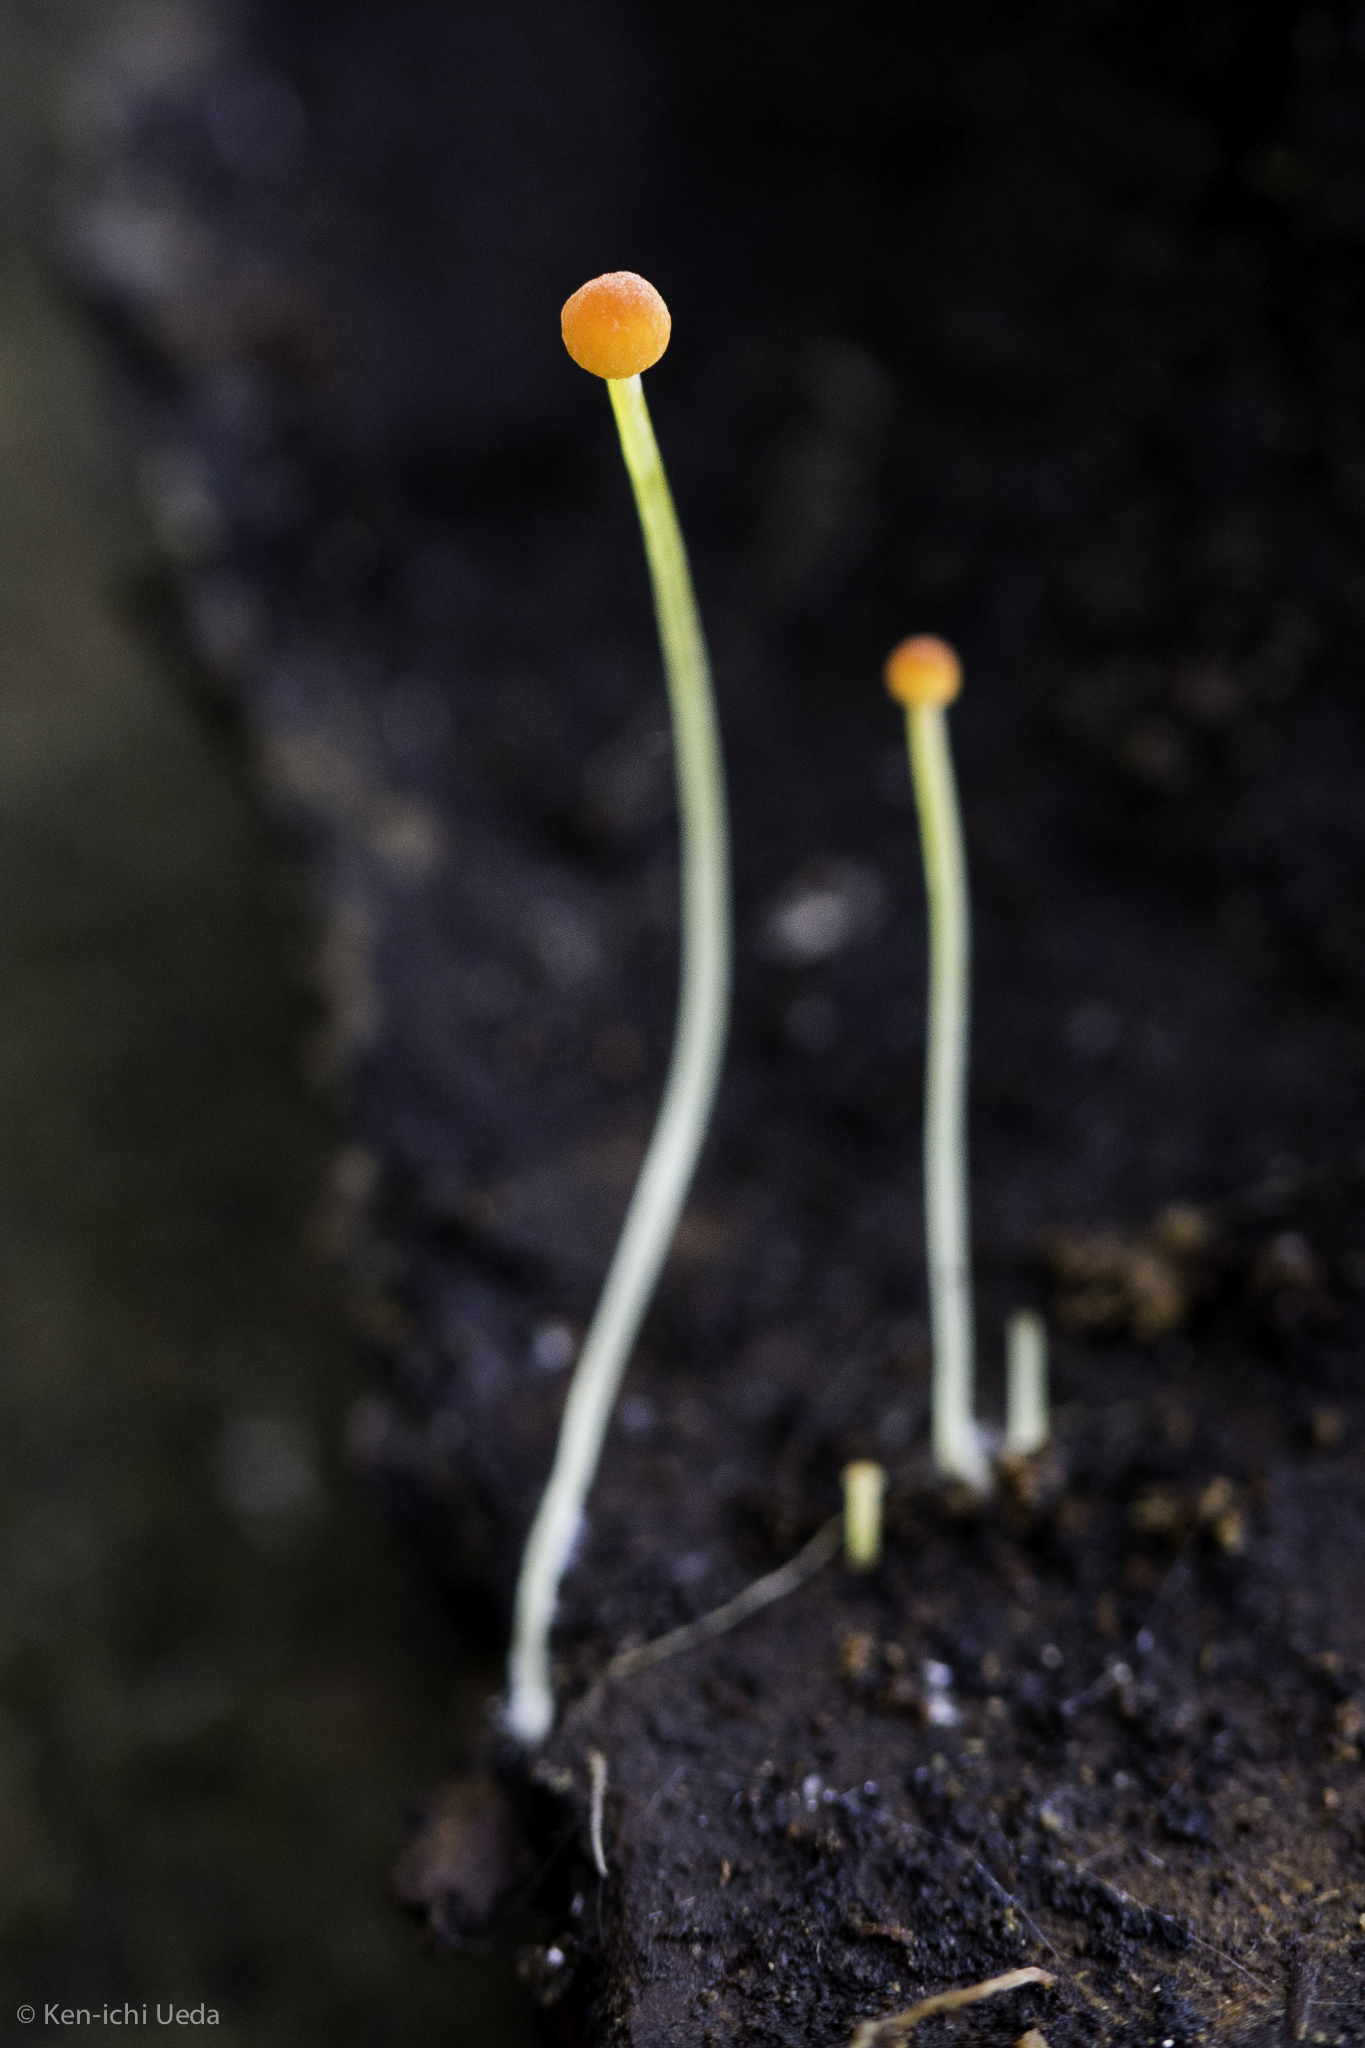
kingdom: Fungi
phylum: Basidiomycota
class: Agaricomycetes
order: Agaricales
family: Mycenaceae
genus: Mycena
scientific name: Mycena acicula
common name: Orange bonnet
